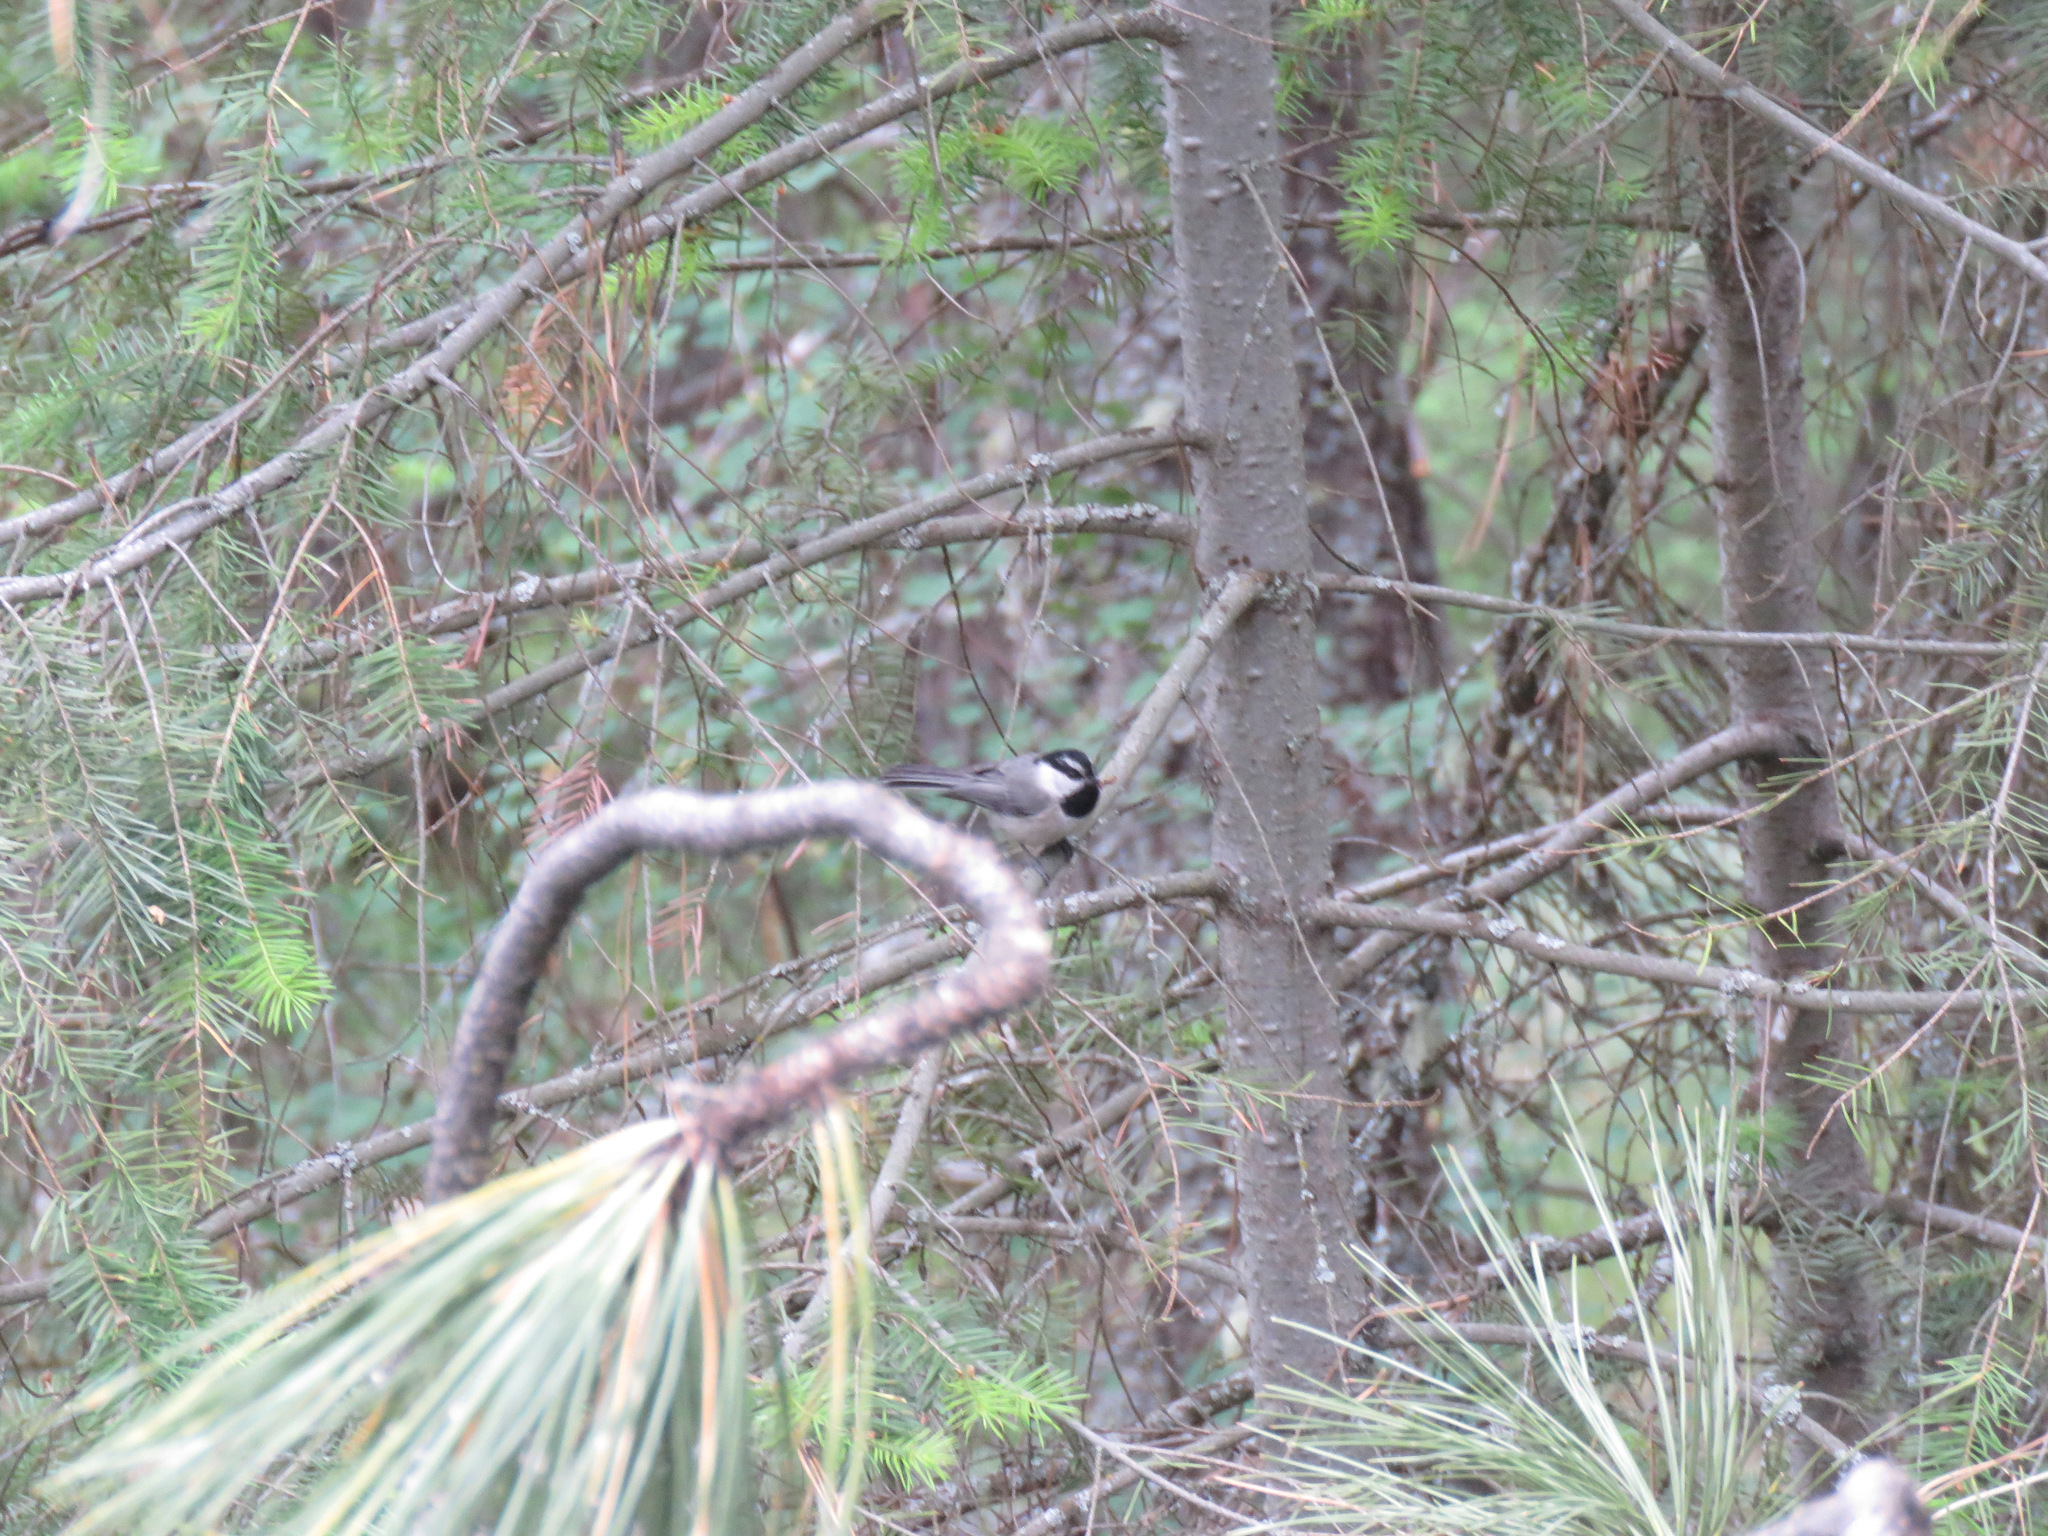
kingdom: Animalia
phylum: Chordata
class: Aves
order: Passeriformes
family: Paridae
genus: Poecile
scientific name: Poecile gambeli
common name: Mountain chickadee
